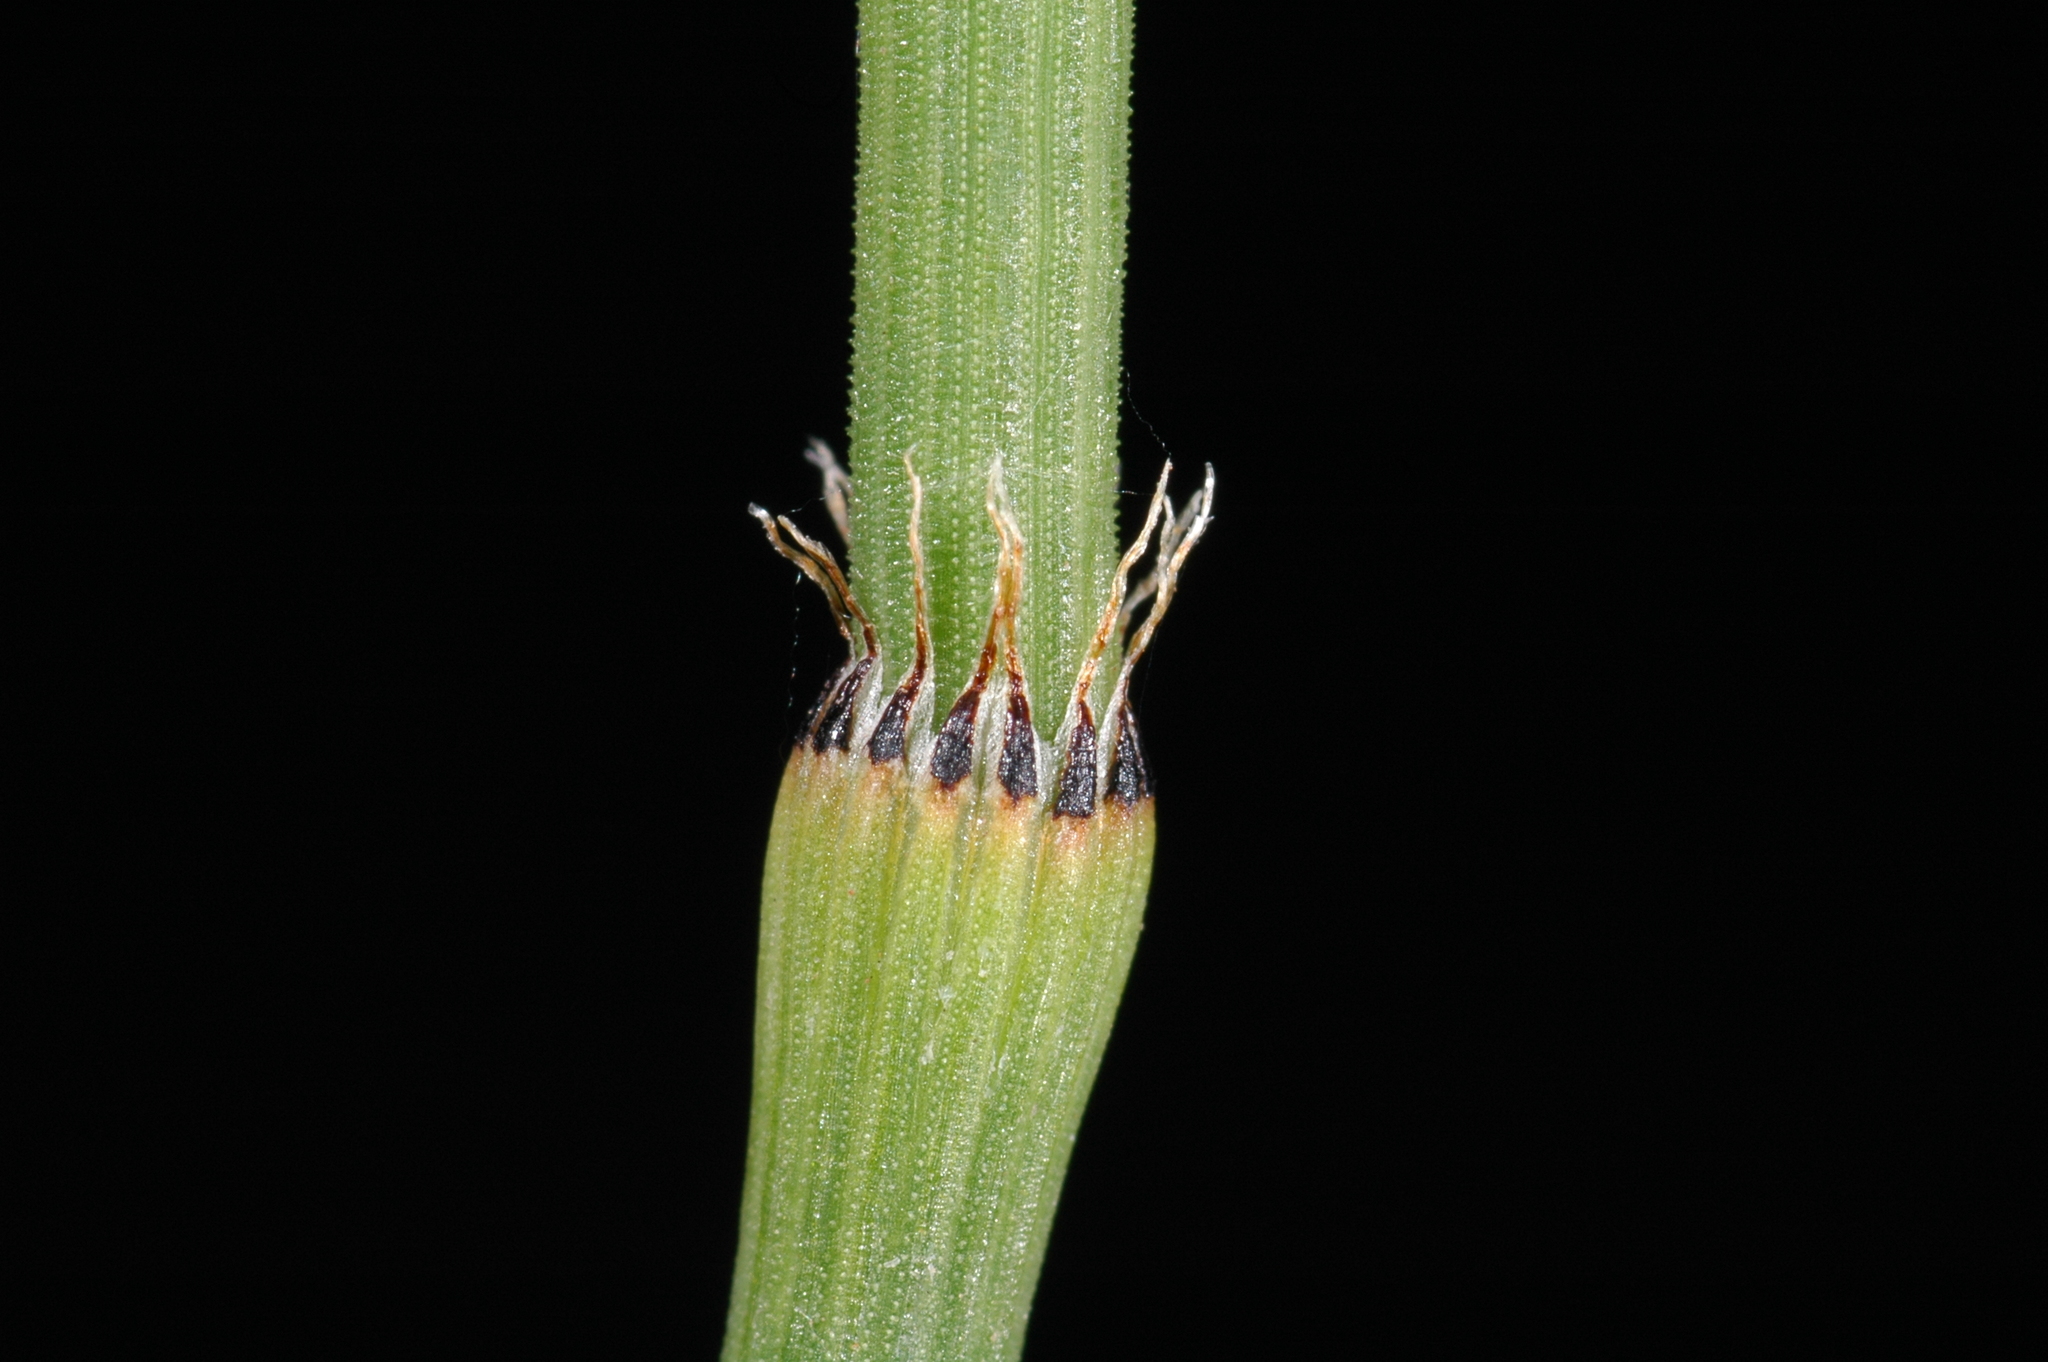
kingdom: Plantae
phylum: Tracheophyta
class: Polypodiopsida
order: Equisetales
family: Equisetaceae
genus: Equisetum
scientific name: Equisetum ferrissii
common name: Ferriss' horsetail
